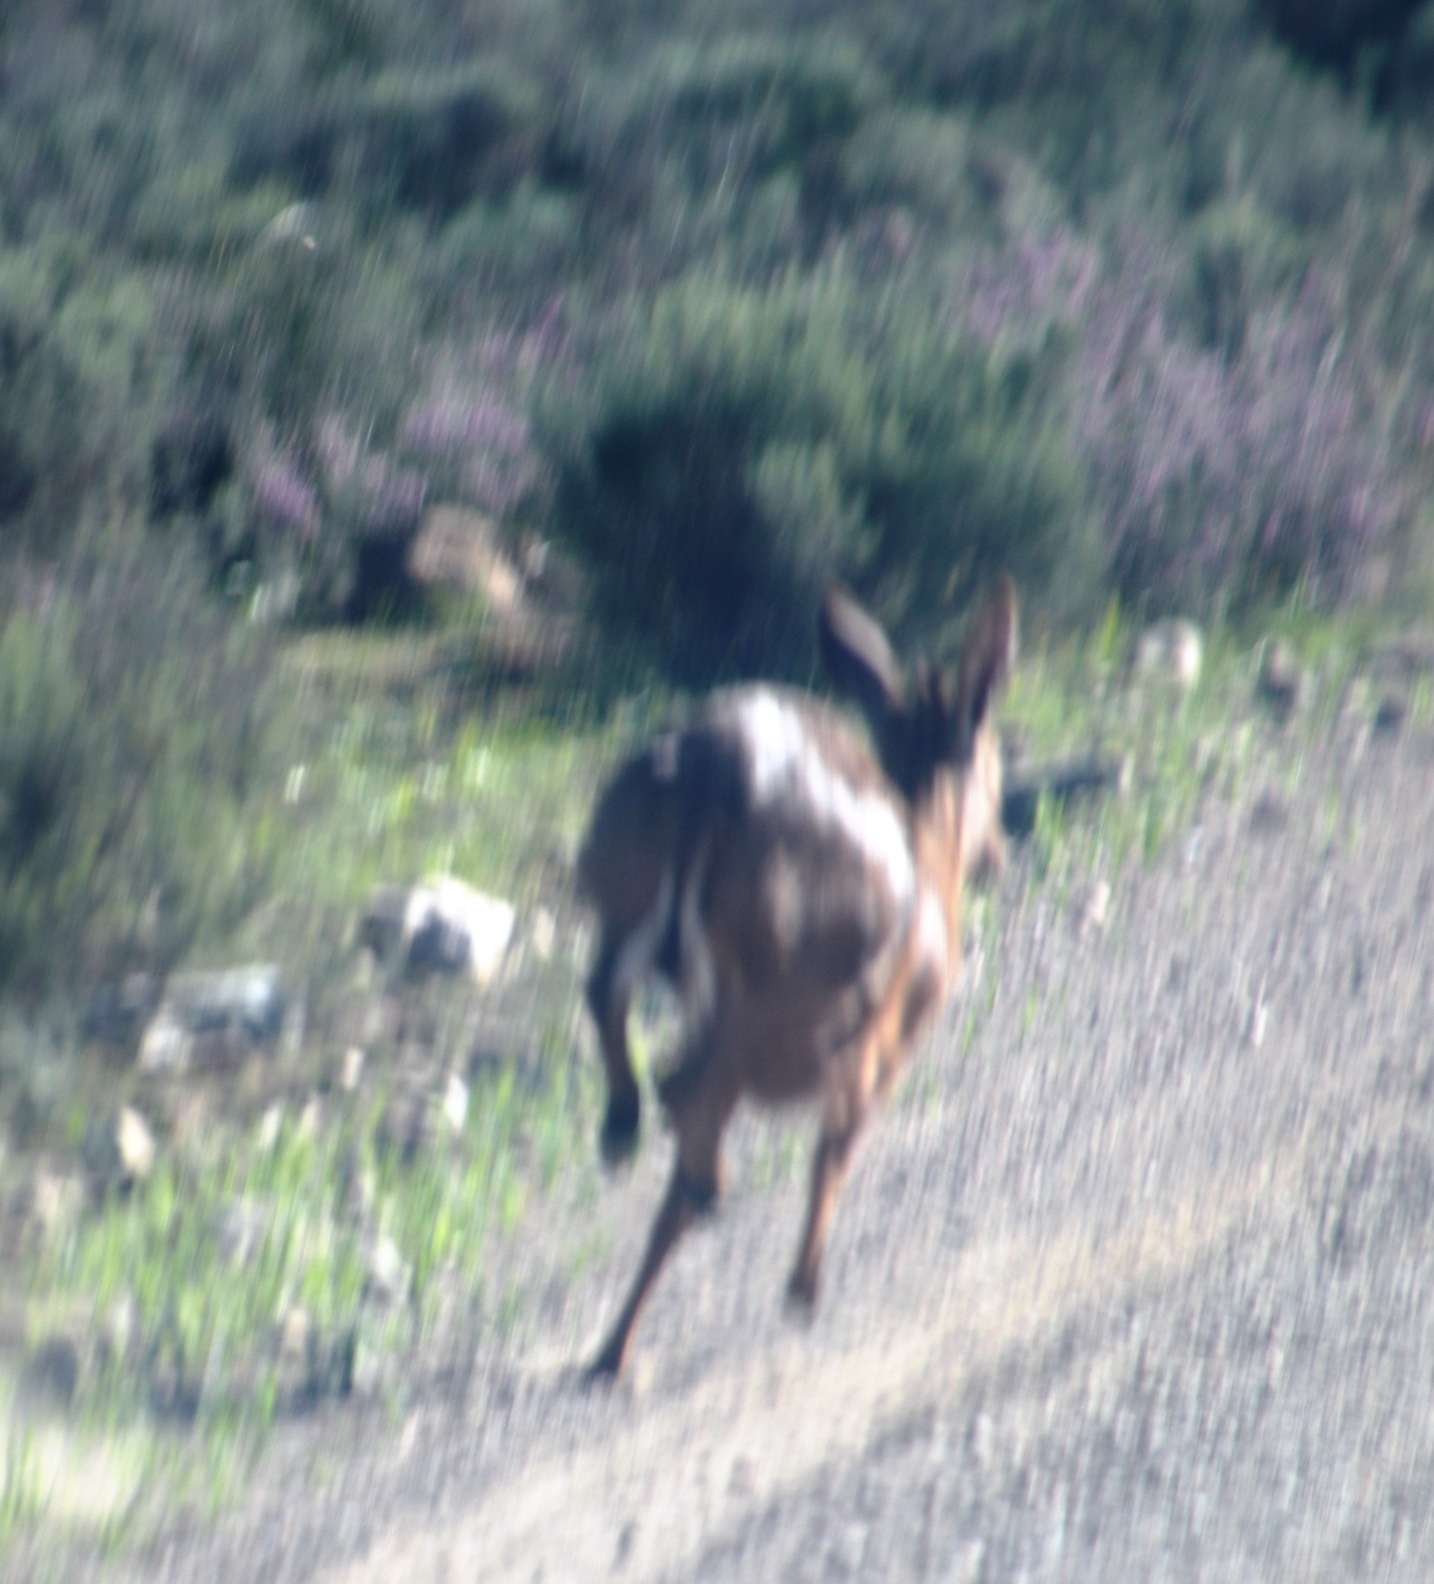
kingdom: Animalia
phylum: Chordata
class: Mammalia
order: Artiodactyla
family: Bovidae
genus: Sylvicapra
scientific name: Sylvicapra grimmia
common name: Bush duiker
